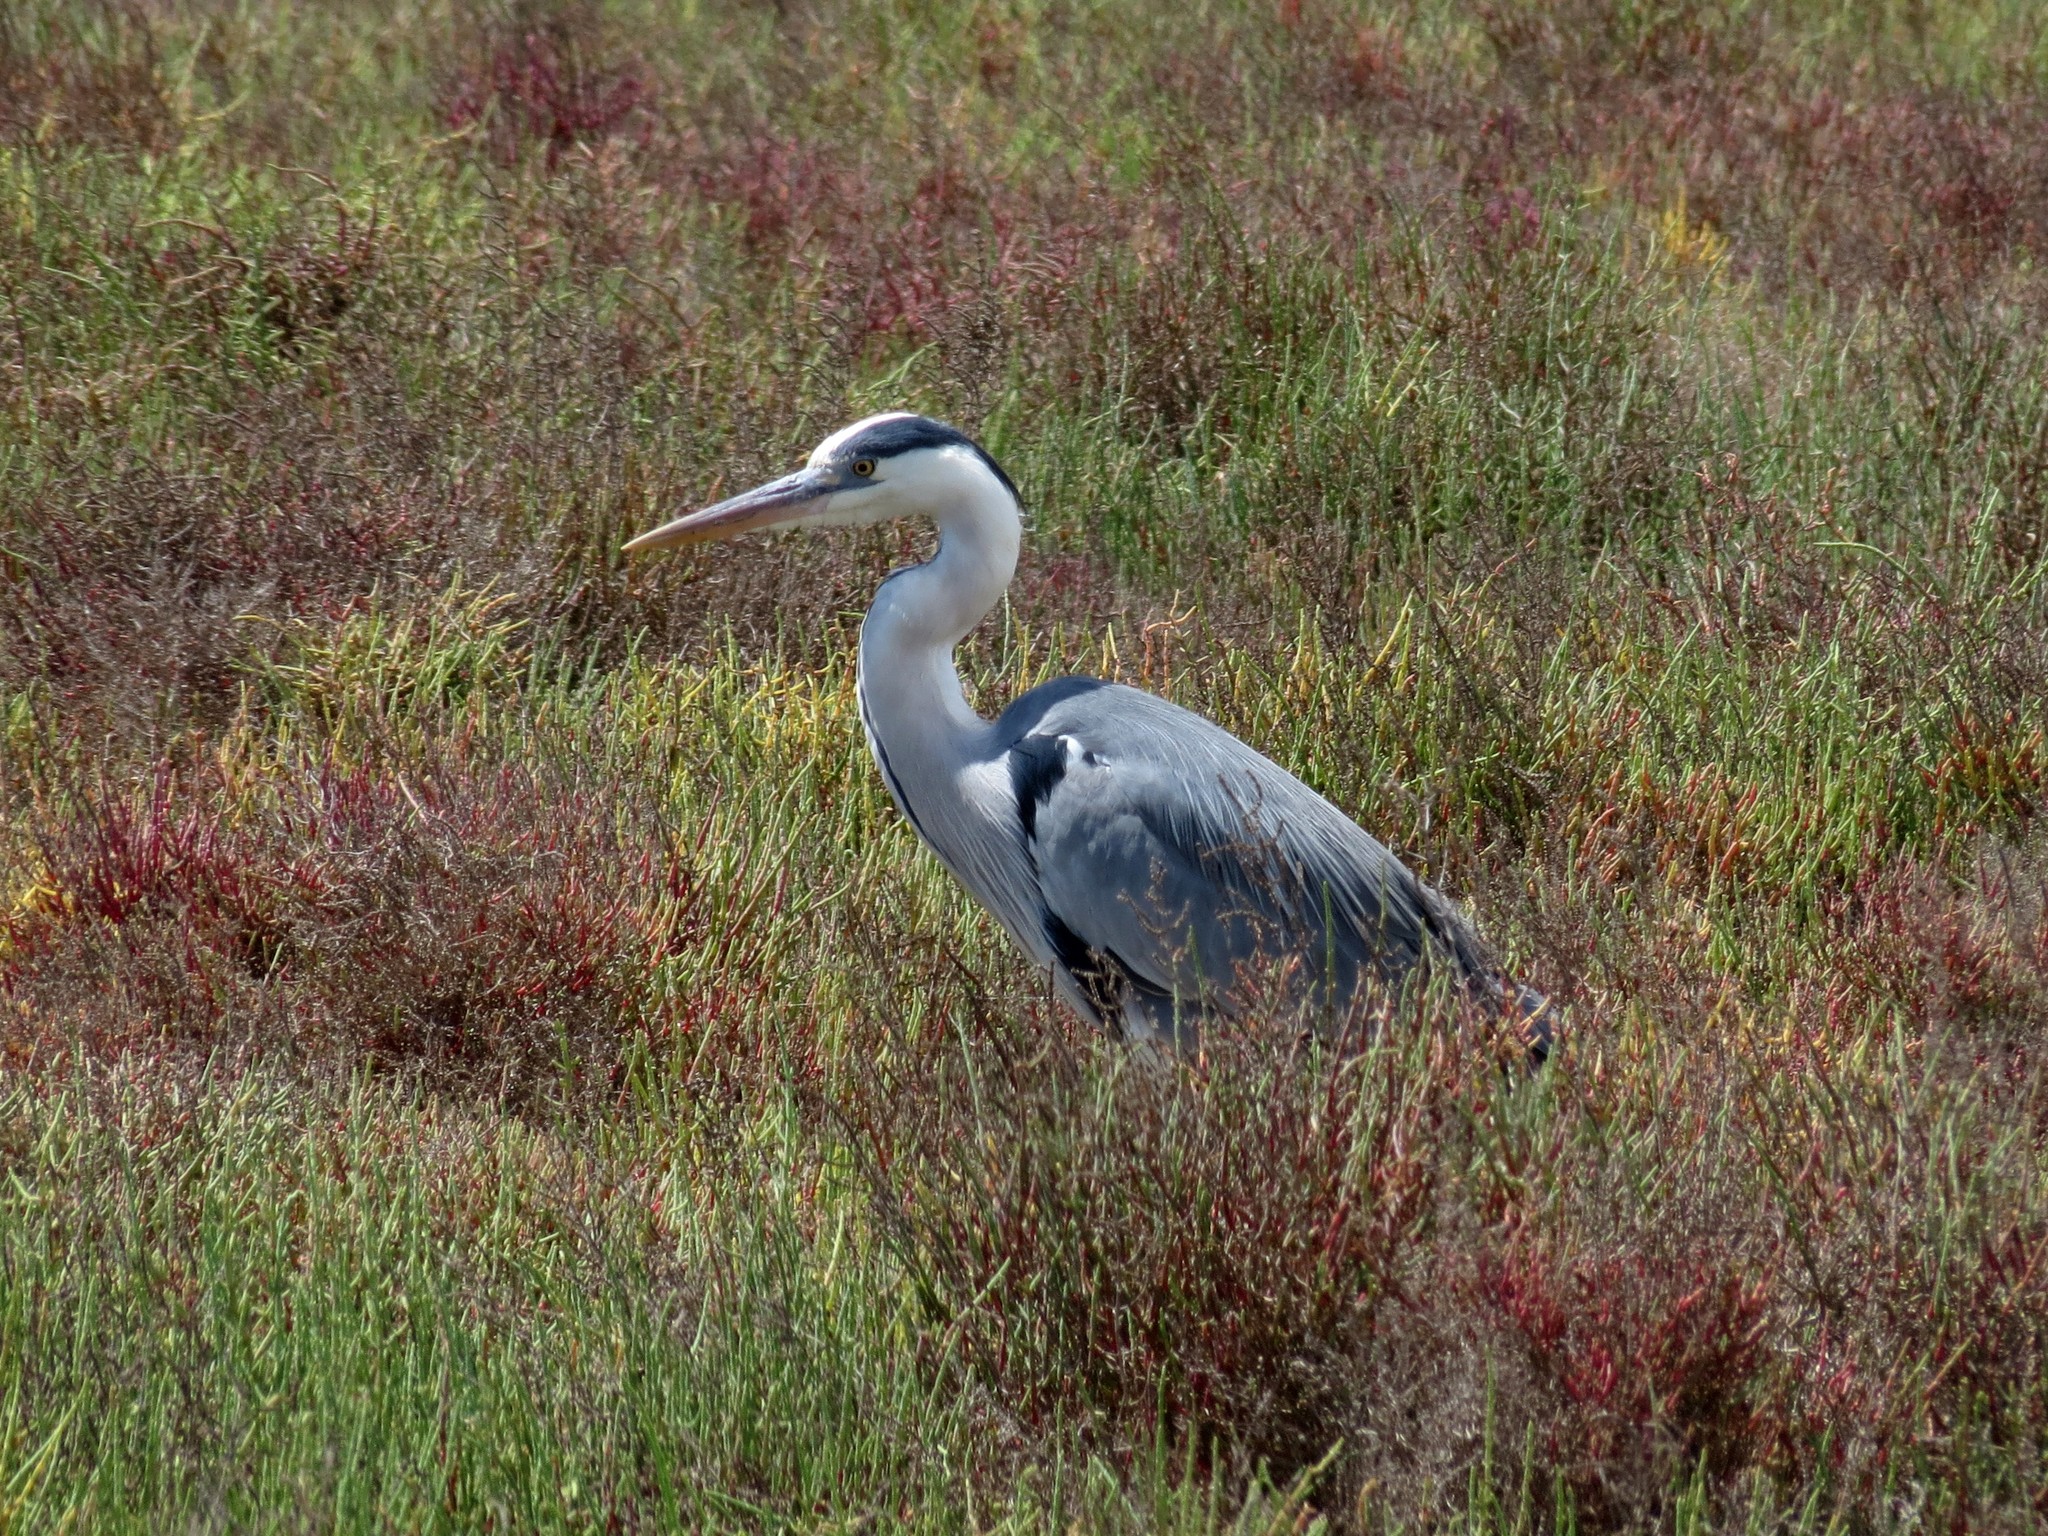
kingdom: Animalia
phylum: Chordata
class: Aves
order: Pelecaniformes
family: Ardeidae
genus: Ardea
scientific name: Ardea cinerea
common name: Grey heron
